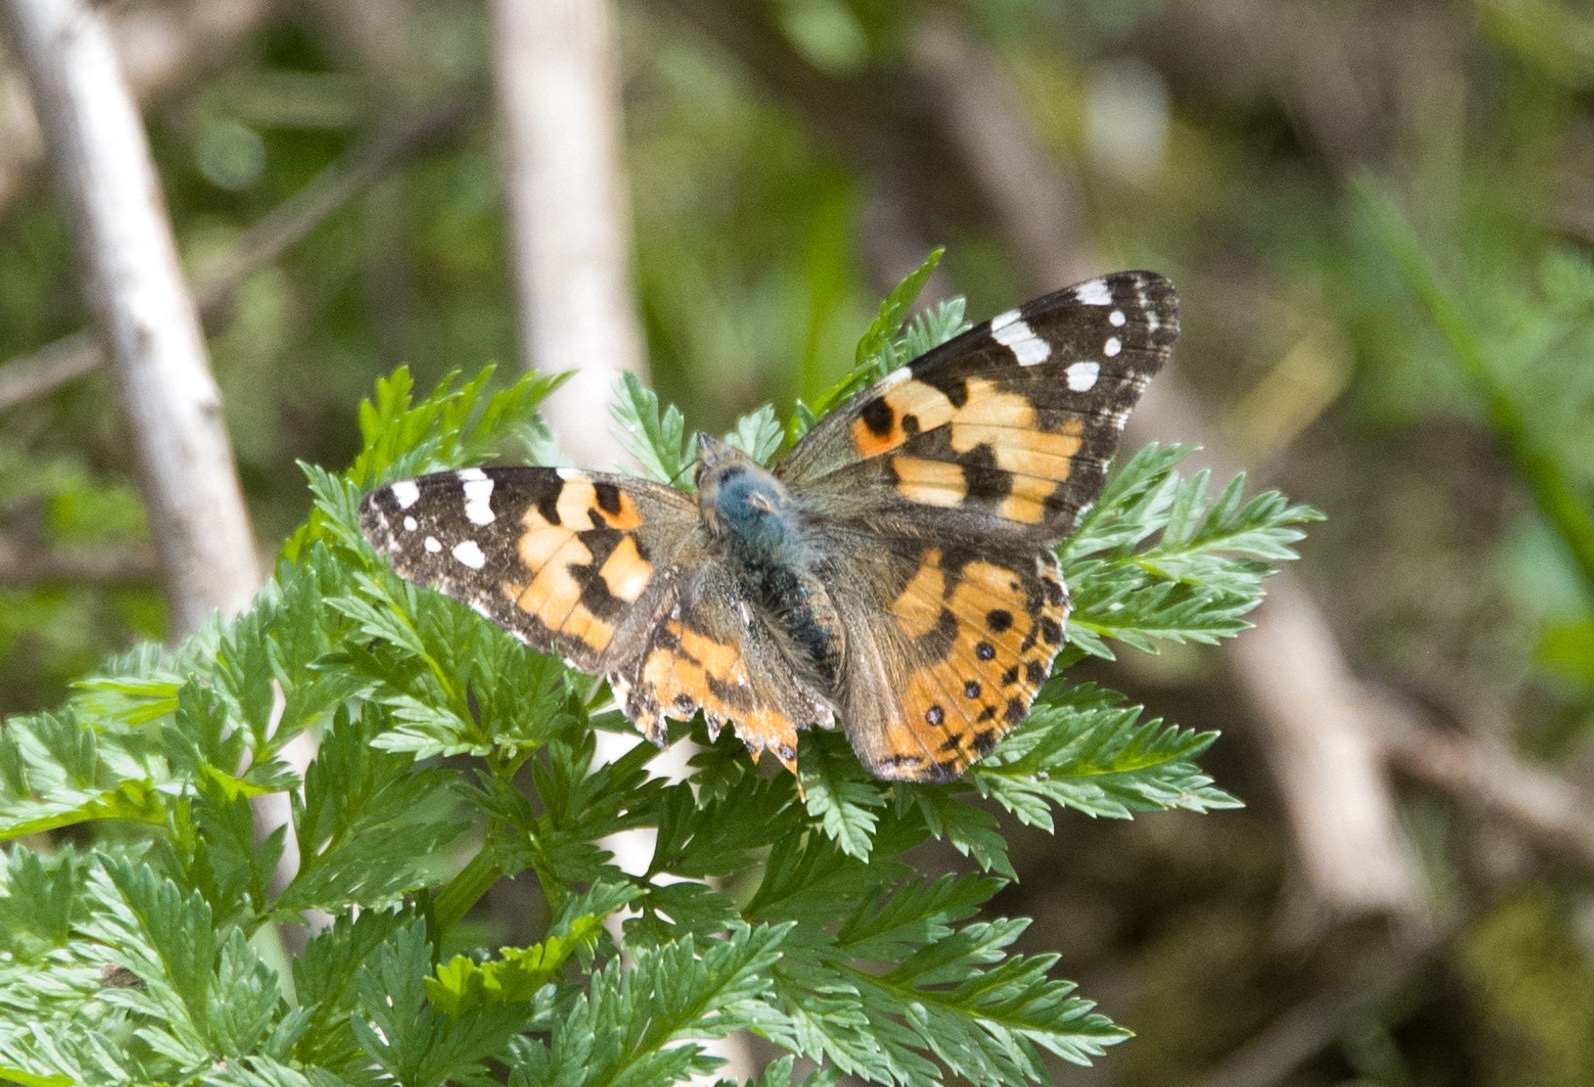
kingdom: Animalia
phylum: Arthropoda
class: Insecta
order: Lepidoptera
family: Nymphalidae
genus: Vanessa
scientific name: Vanessa cardui
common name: Painted lady
